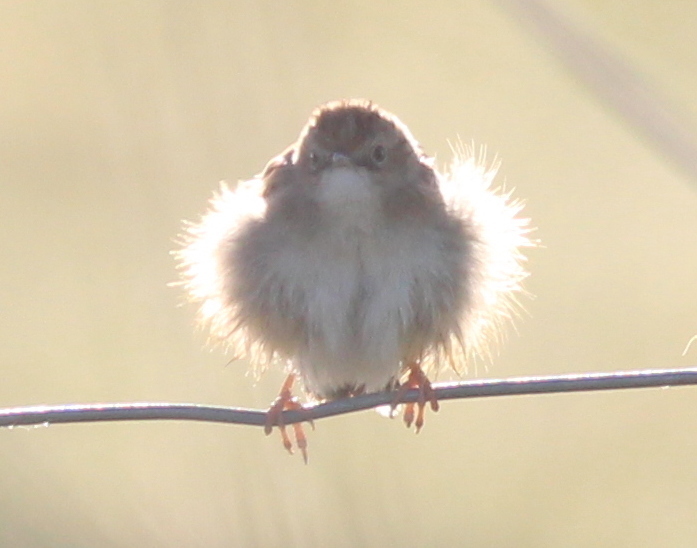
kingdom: Animalia
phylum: Chordata
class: Aves
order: Passeriformes
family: Cisticolidae
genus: Cisticola
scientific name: Cisticola juncidis
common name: Zitting cisticola
